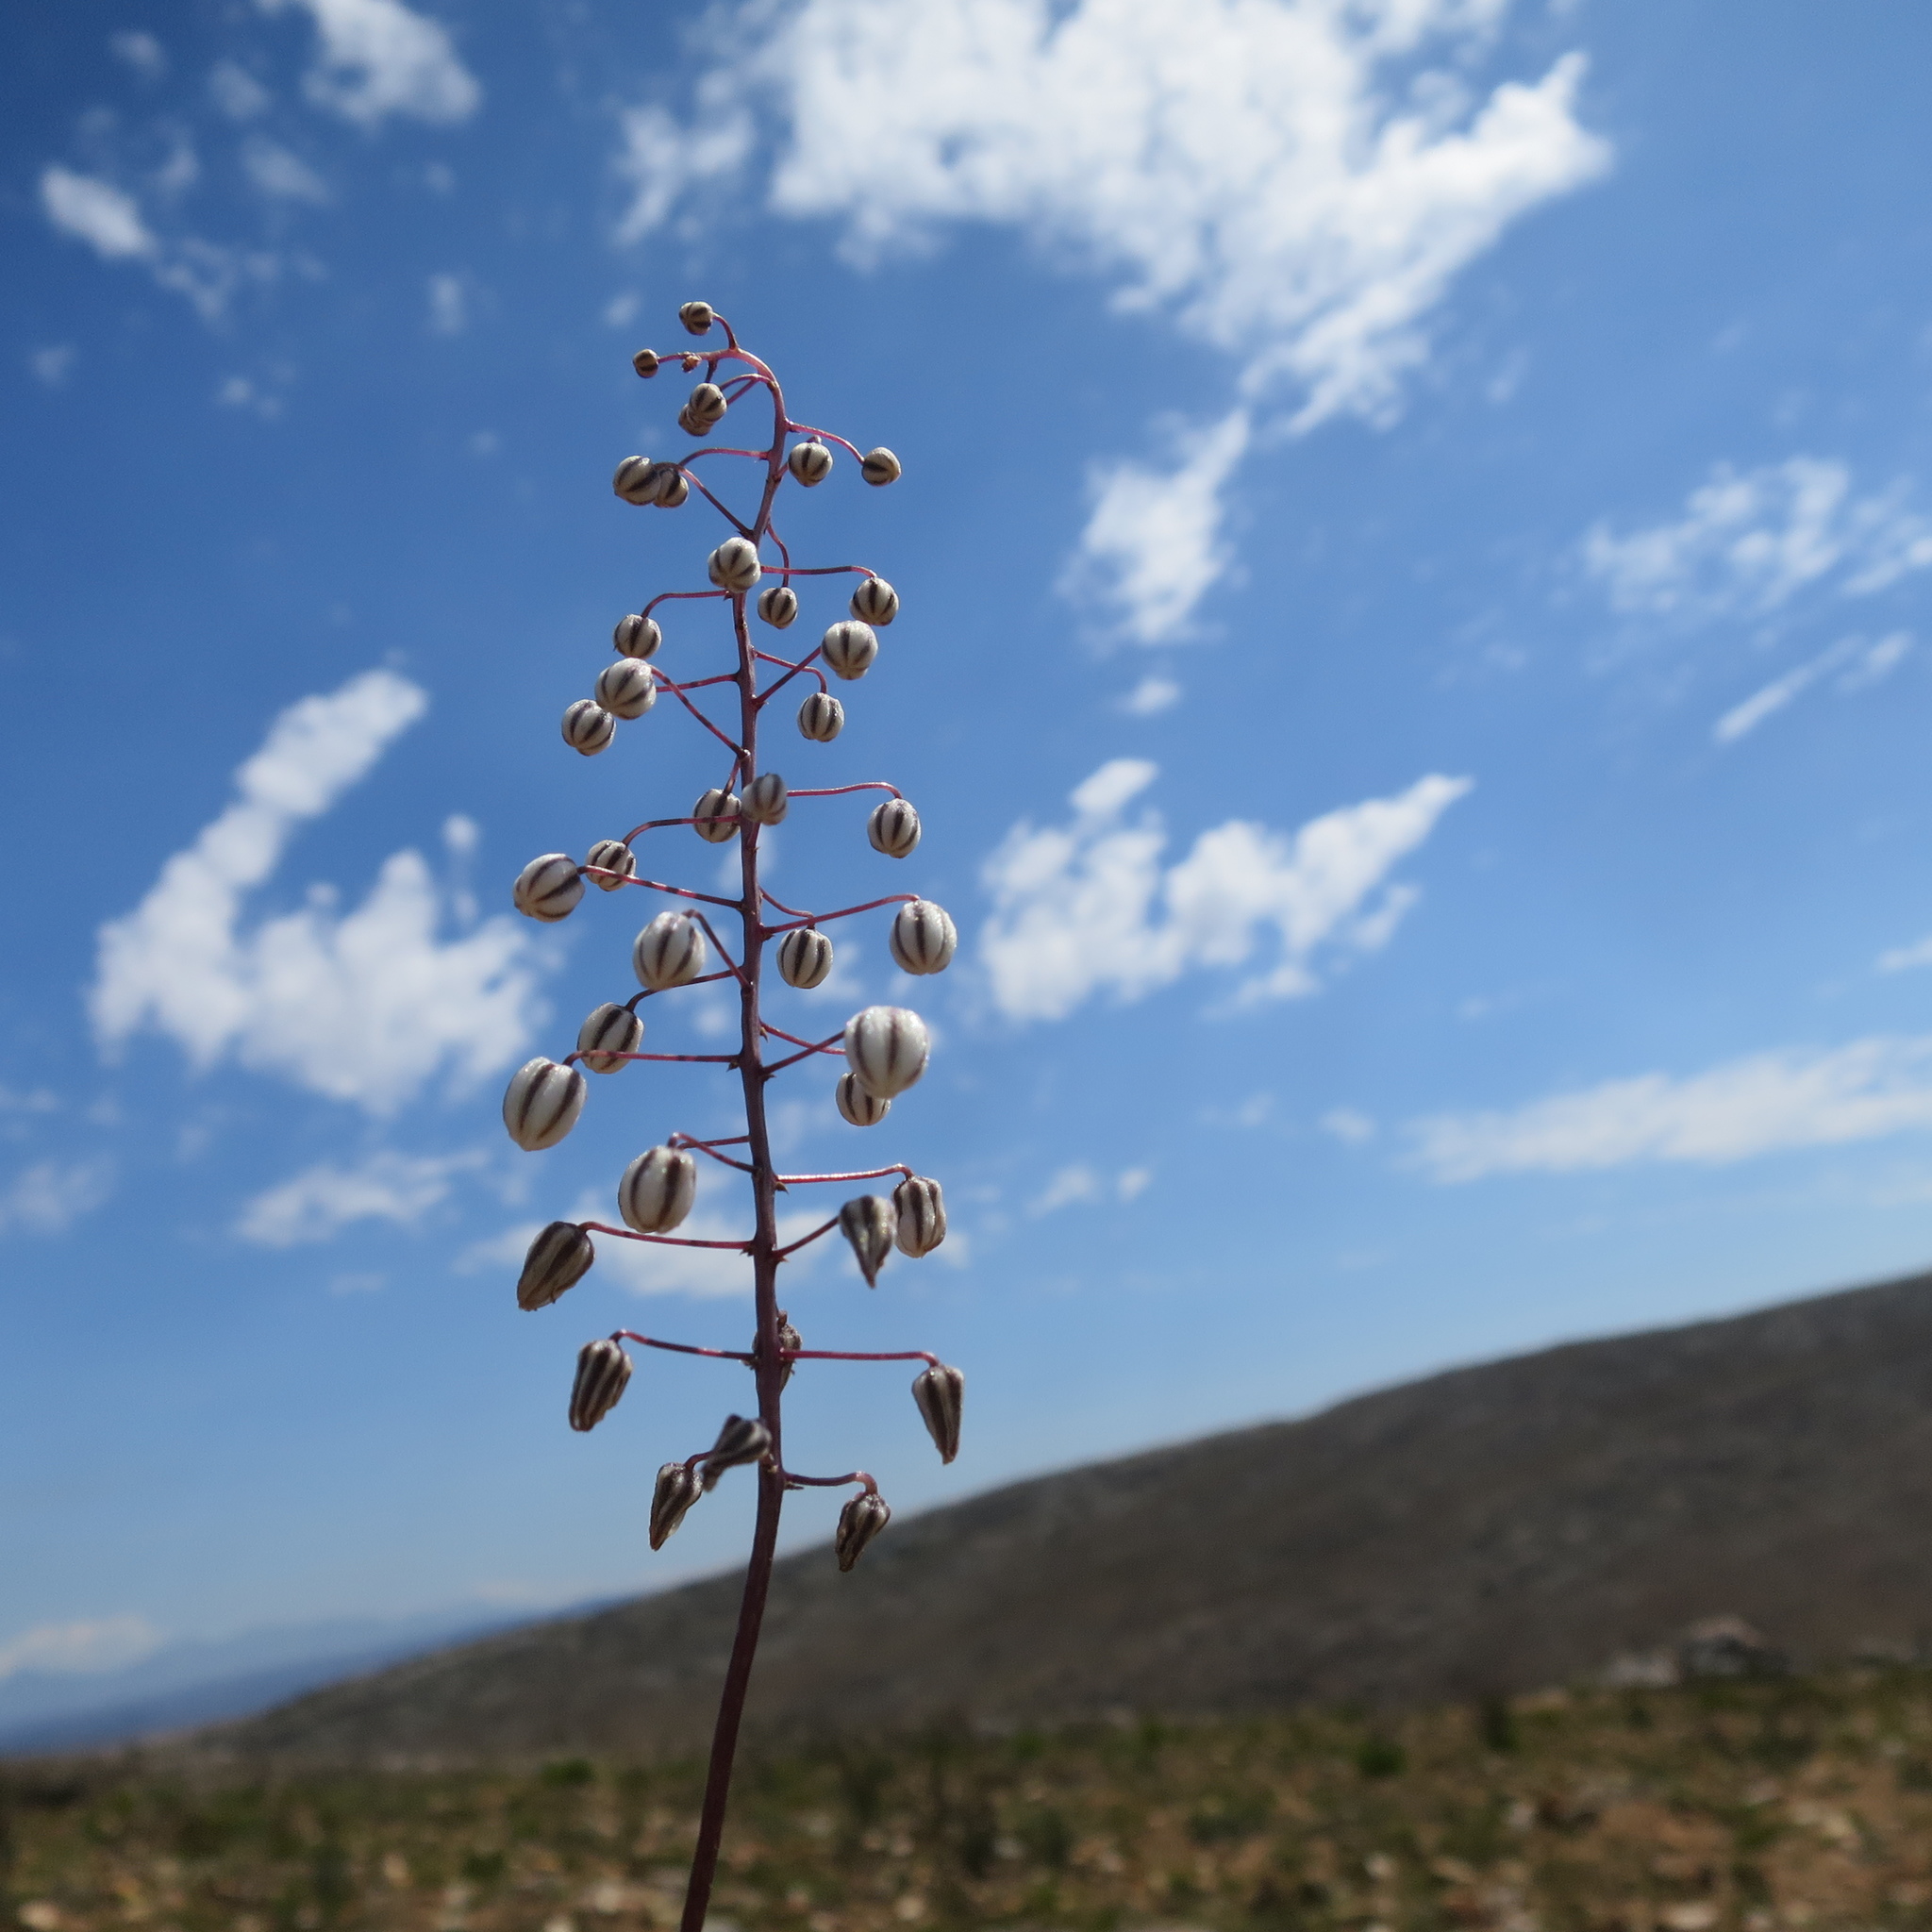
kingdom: Plantae
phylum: Tracheophyta
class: Liliopsida
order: Asparagales
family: Asparagaceae
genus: Drimia
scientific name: Drimia ciliata
